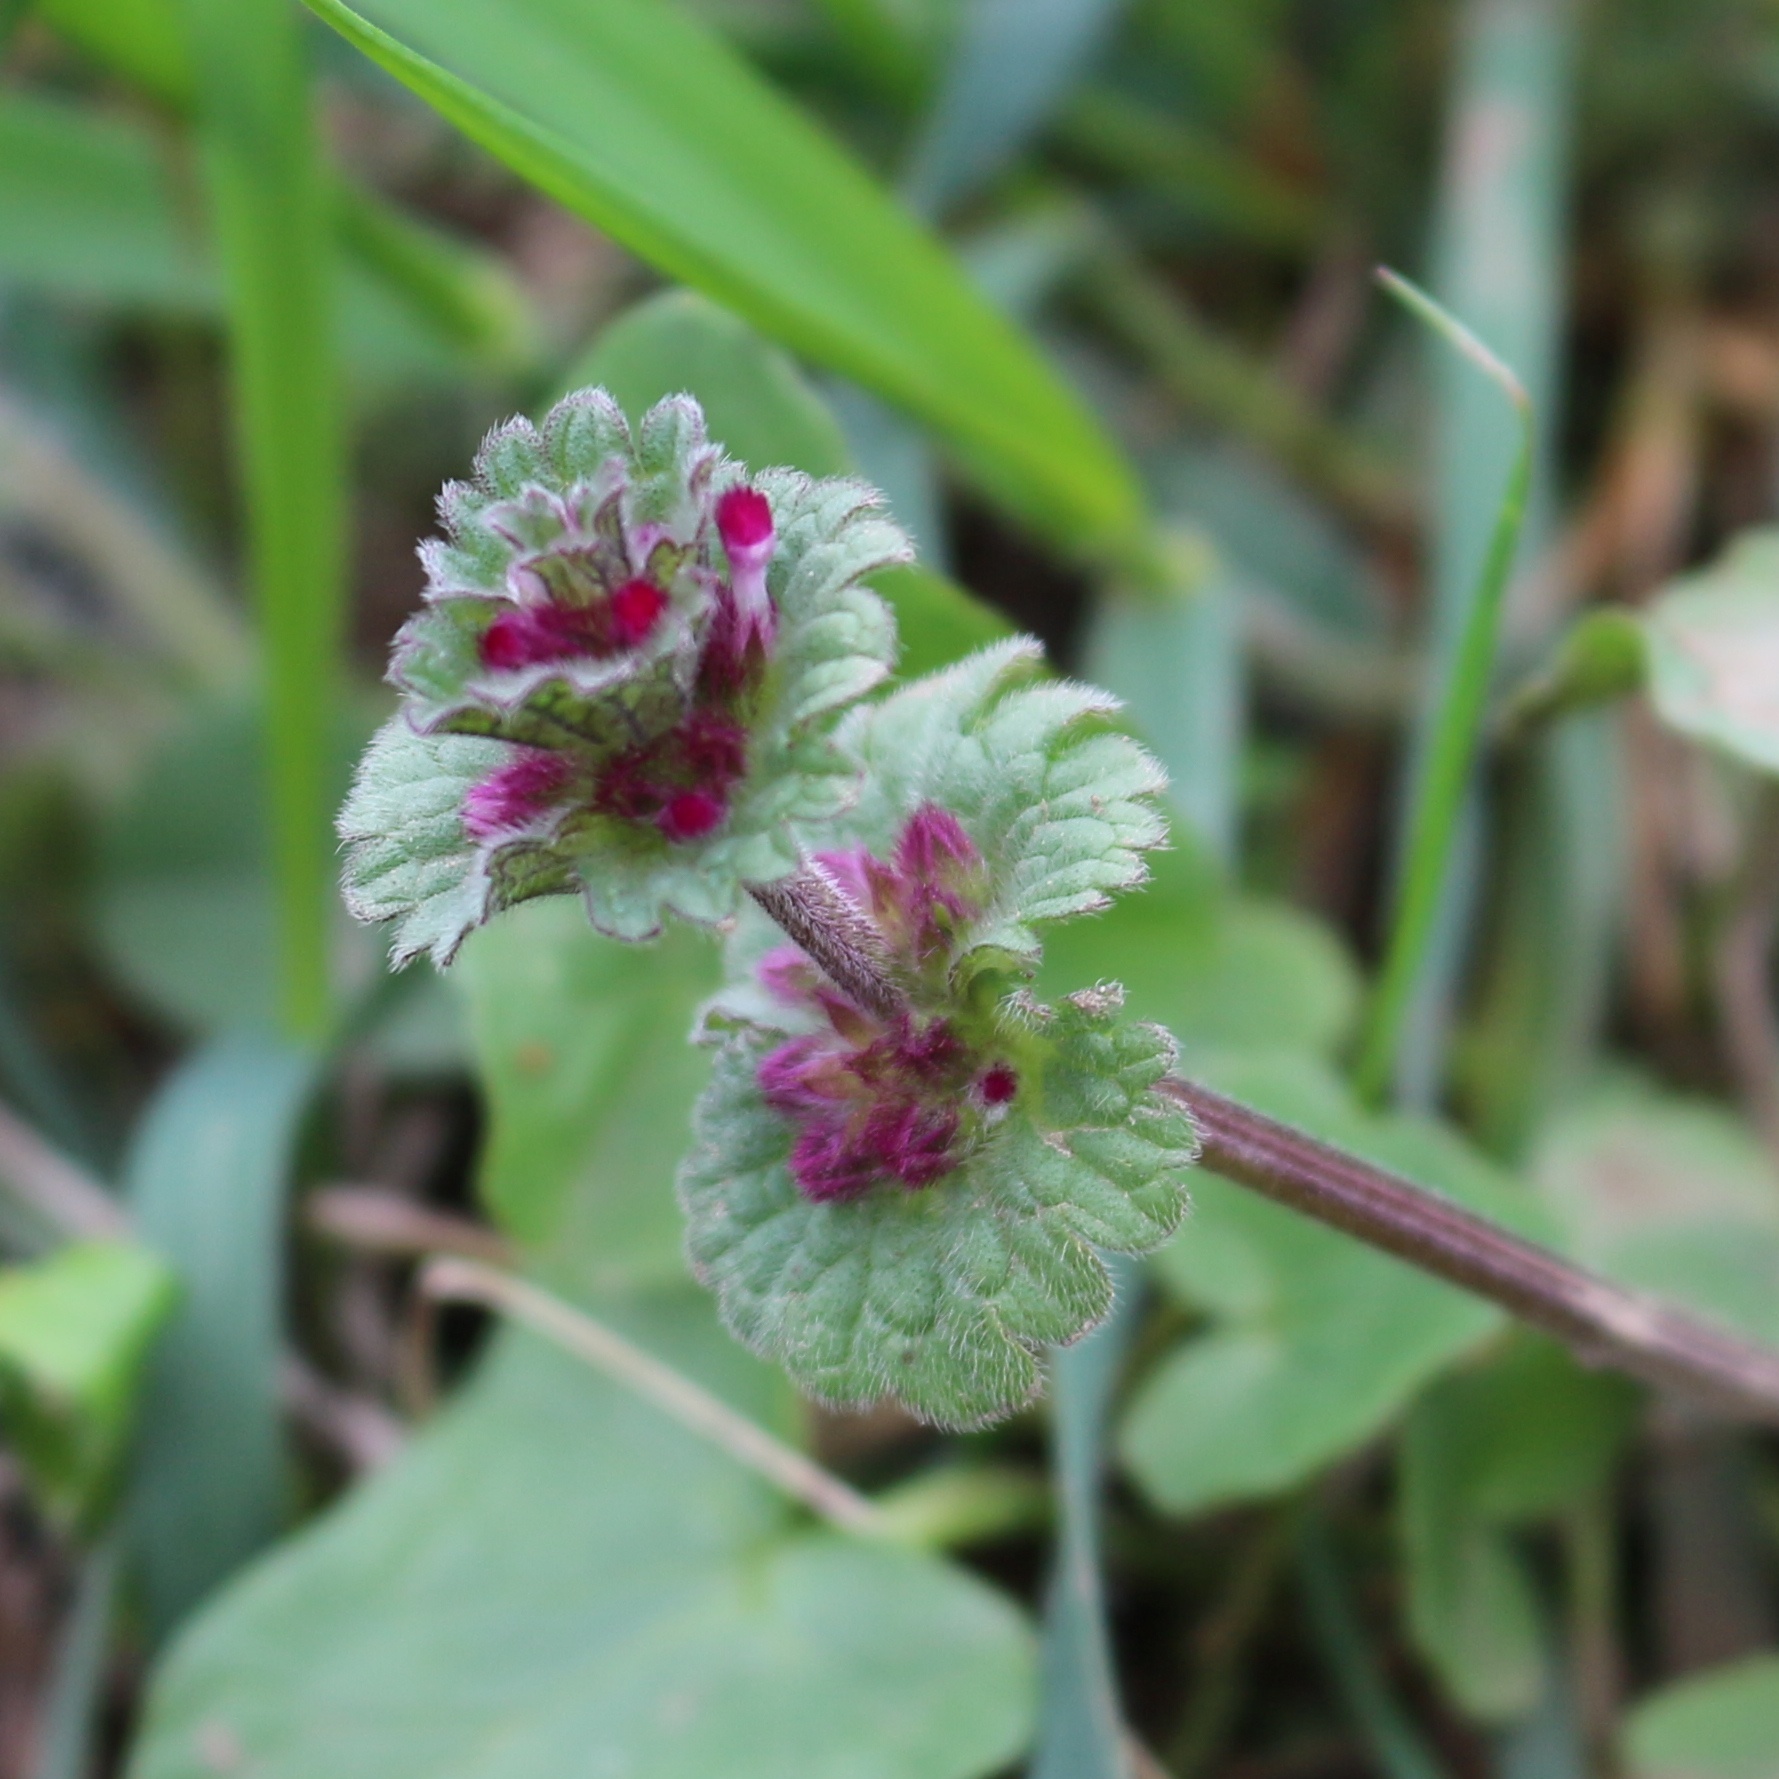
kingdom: Plantae
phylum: Tracheophyta
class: Magnoliopsida
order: Lamiales
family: Lamiaceae
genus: Lamium
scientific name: Lamium amplexicaule
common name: Henbit dead-nettle
